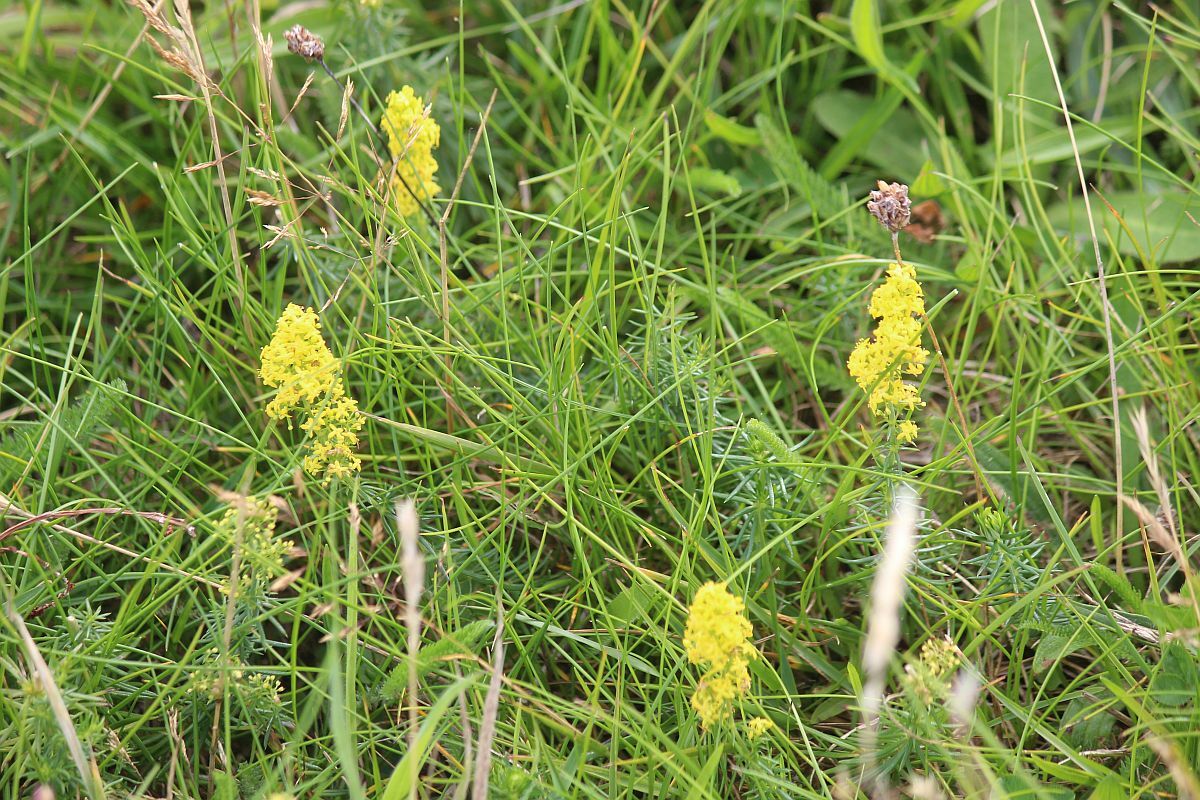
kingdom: Plantae
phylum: Tracheophyta
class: Magnoliopsida
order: Gentianales
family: Rubiaceae
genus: Galium
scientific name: Galium verum
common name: Lady's bedstraw
